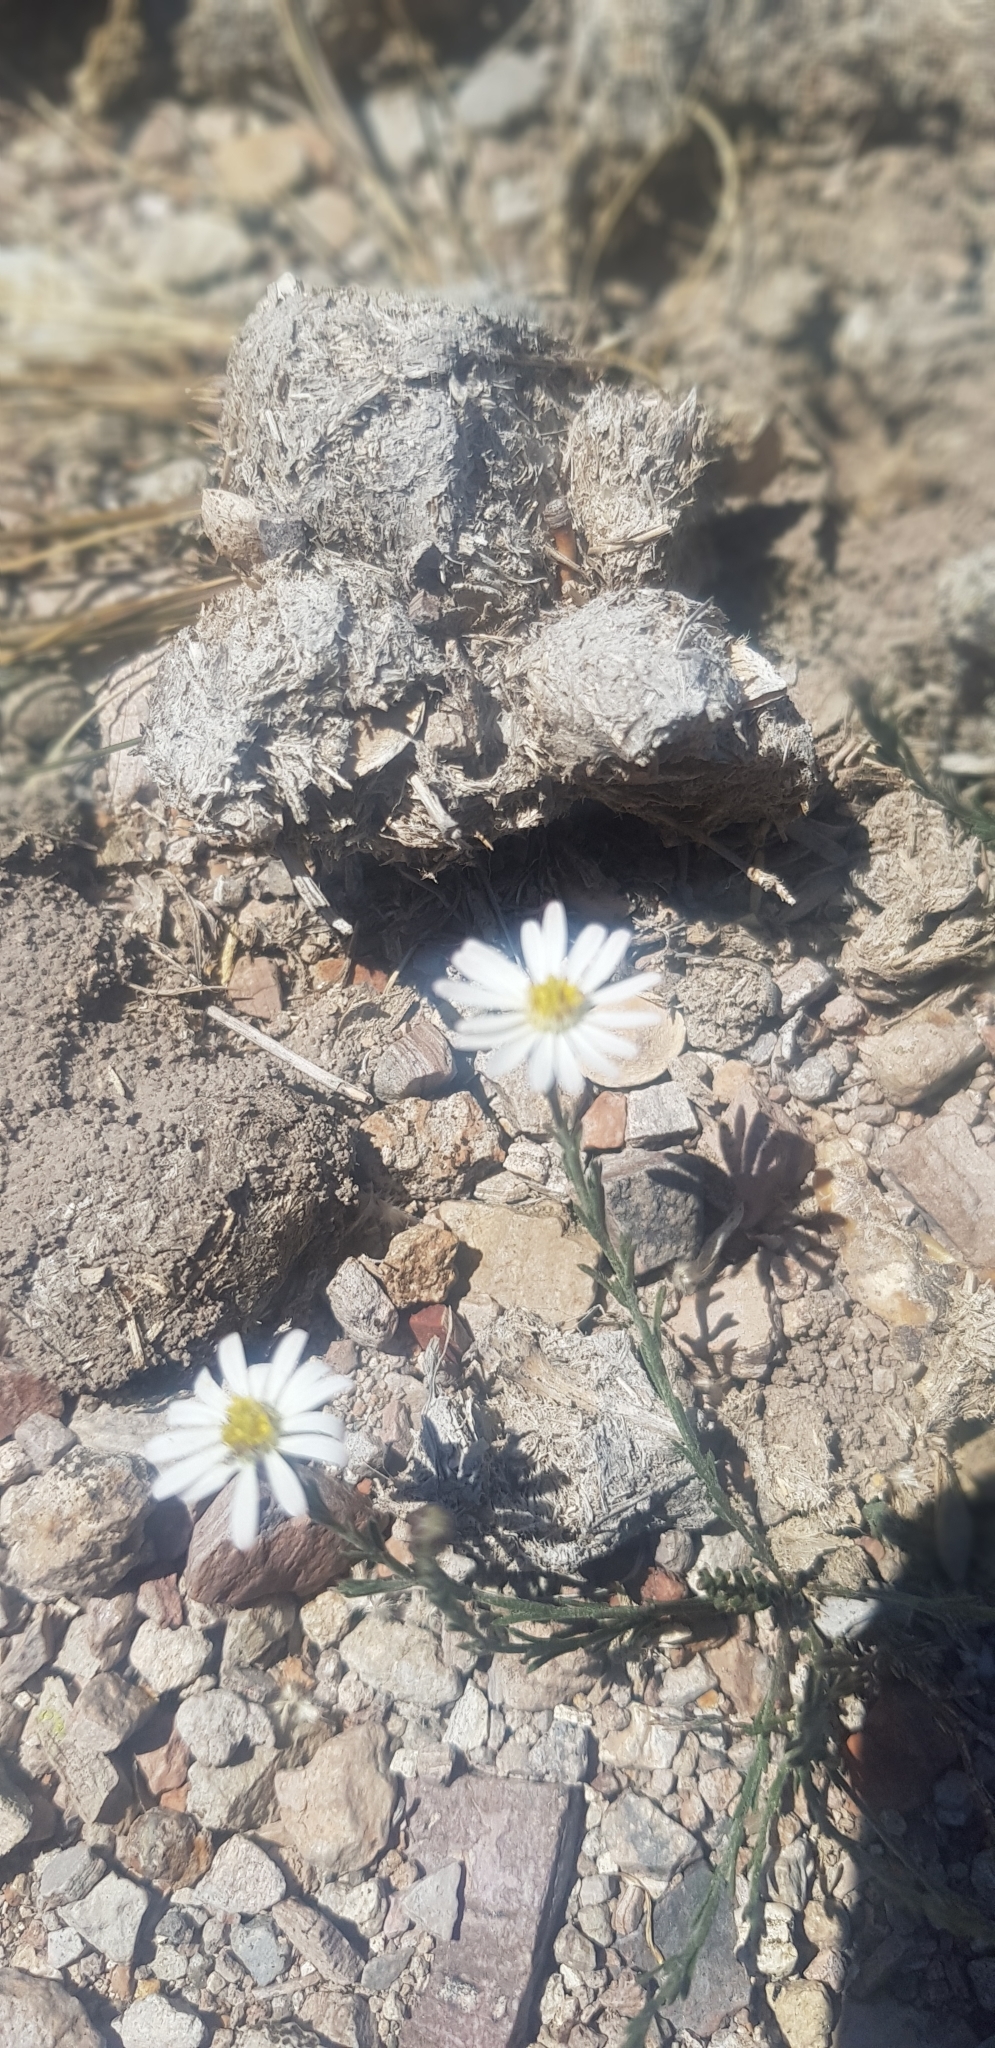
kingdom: Plantae
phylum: Tracheophyta
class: Magnoliopsida
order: Asterales
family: Asteraceae
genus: Chaetopappa
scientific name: Chaetopappa ericoides
